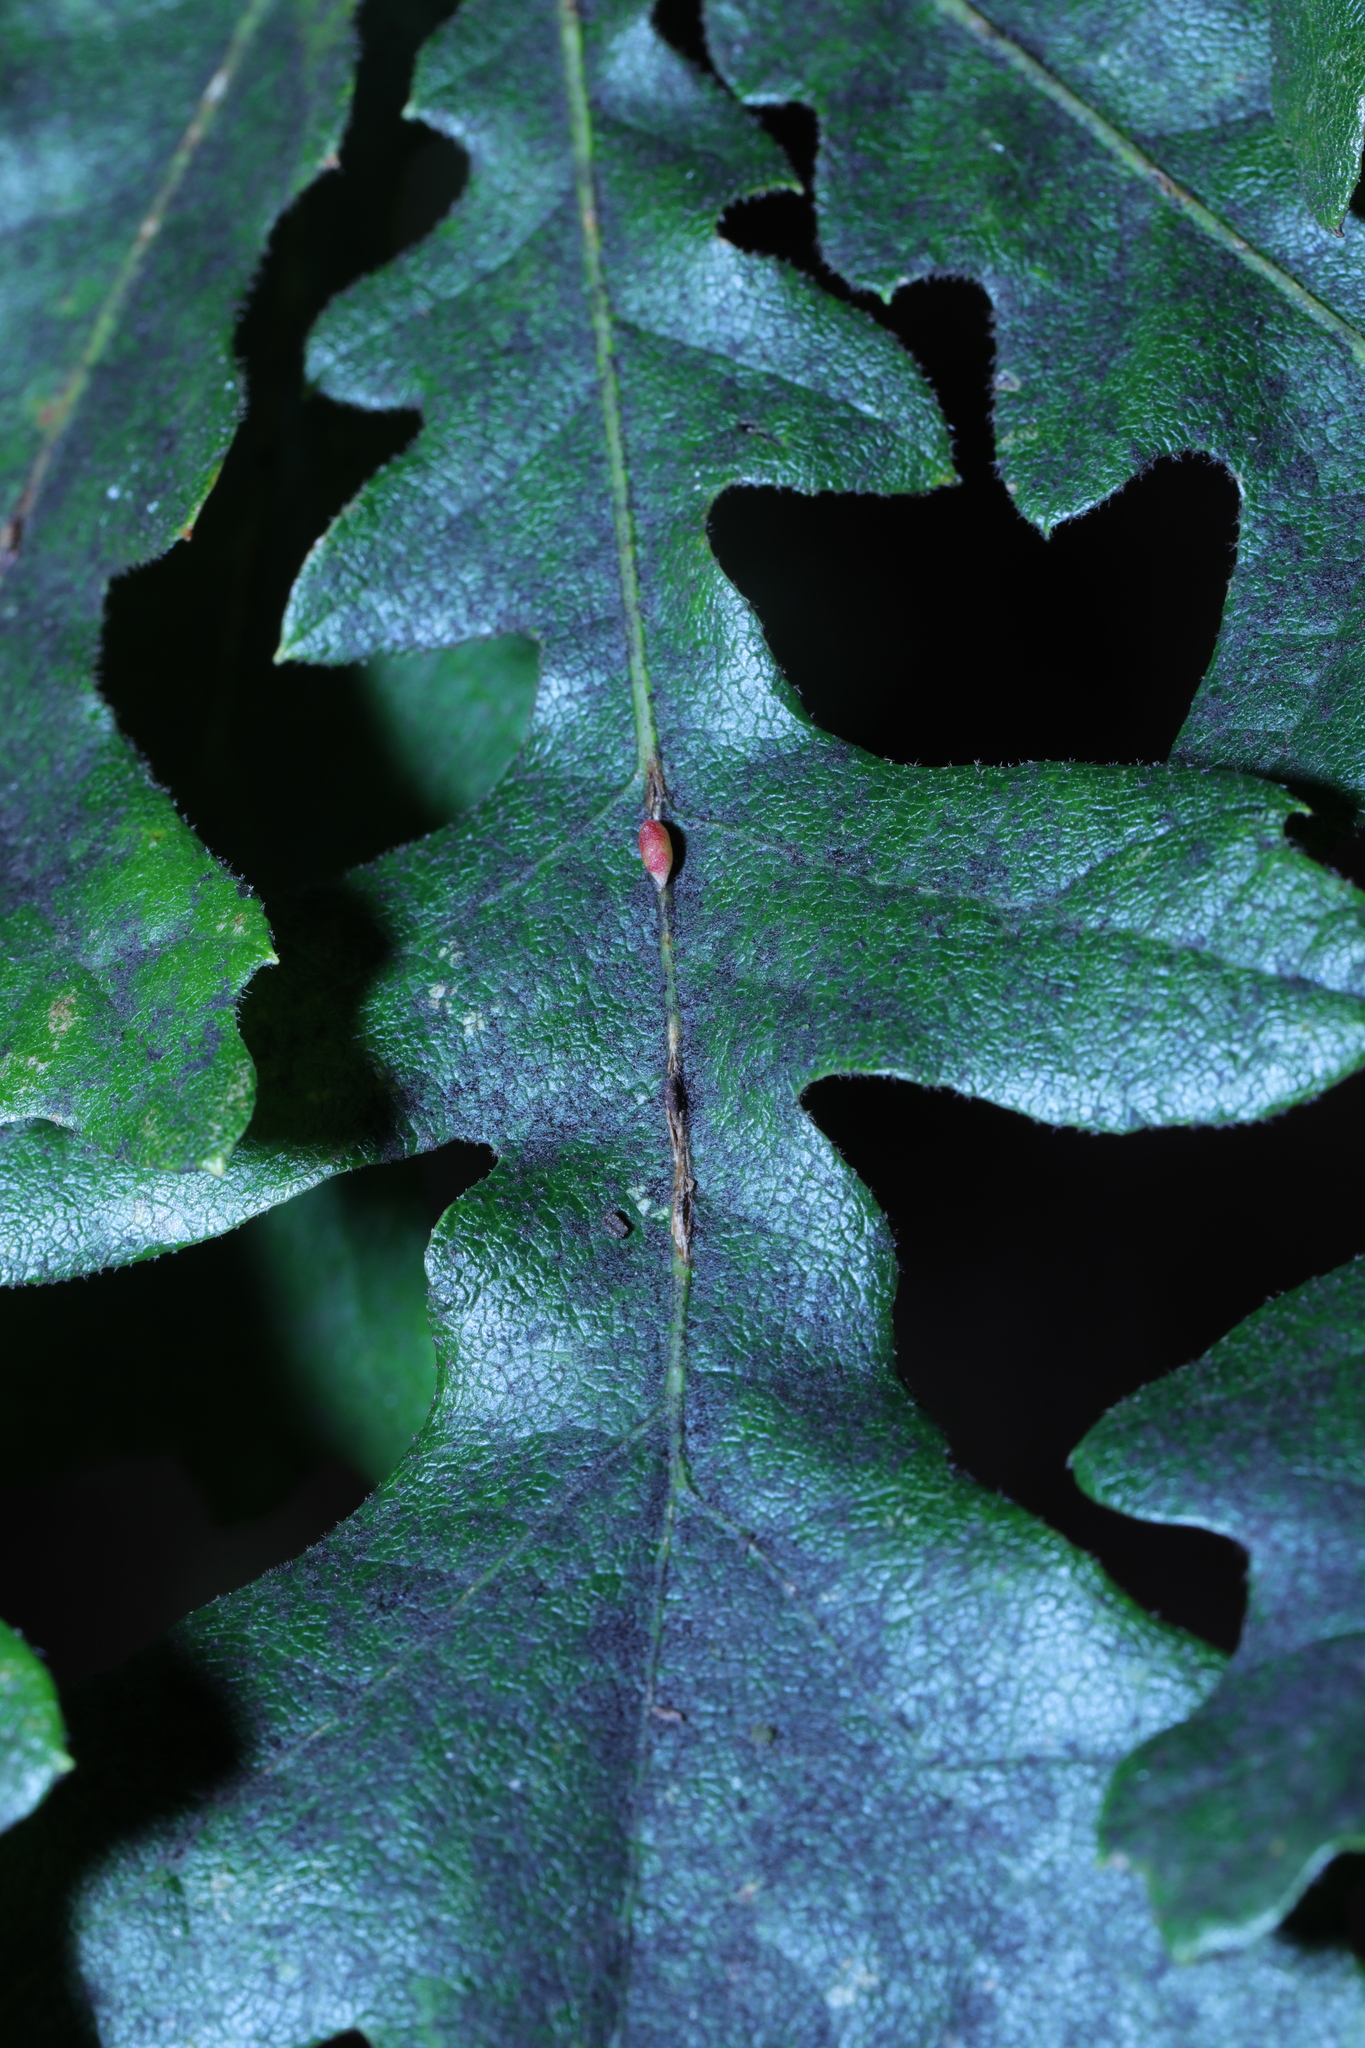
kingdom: Animalia
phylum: Arthropoda
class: Insecta
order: Hymenoptera
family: Cynipidae
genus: Neuroterus
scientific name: Neuroterus saliens
